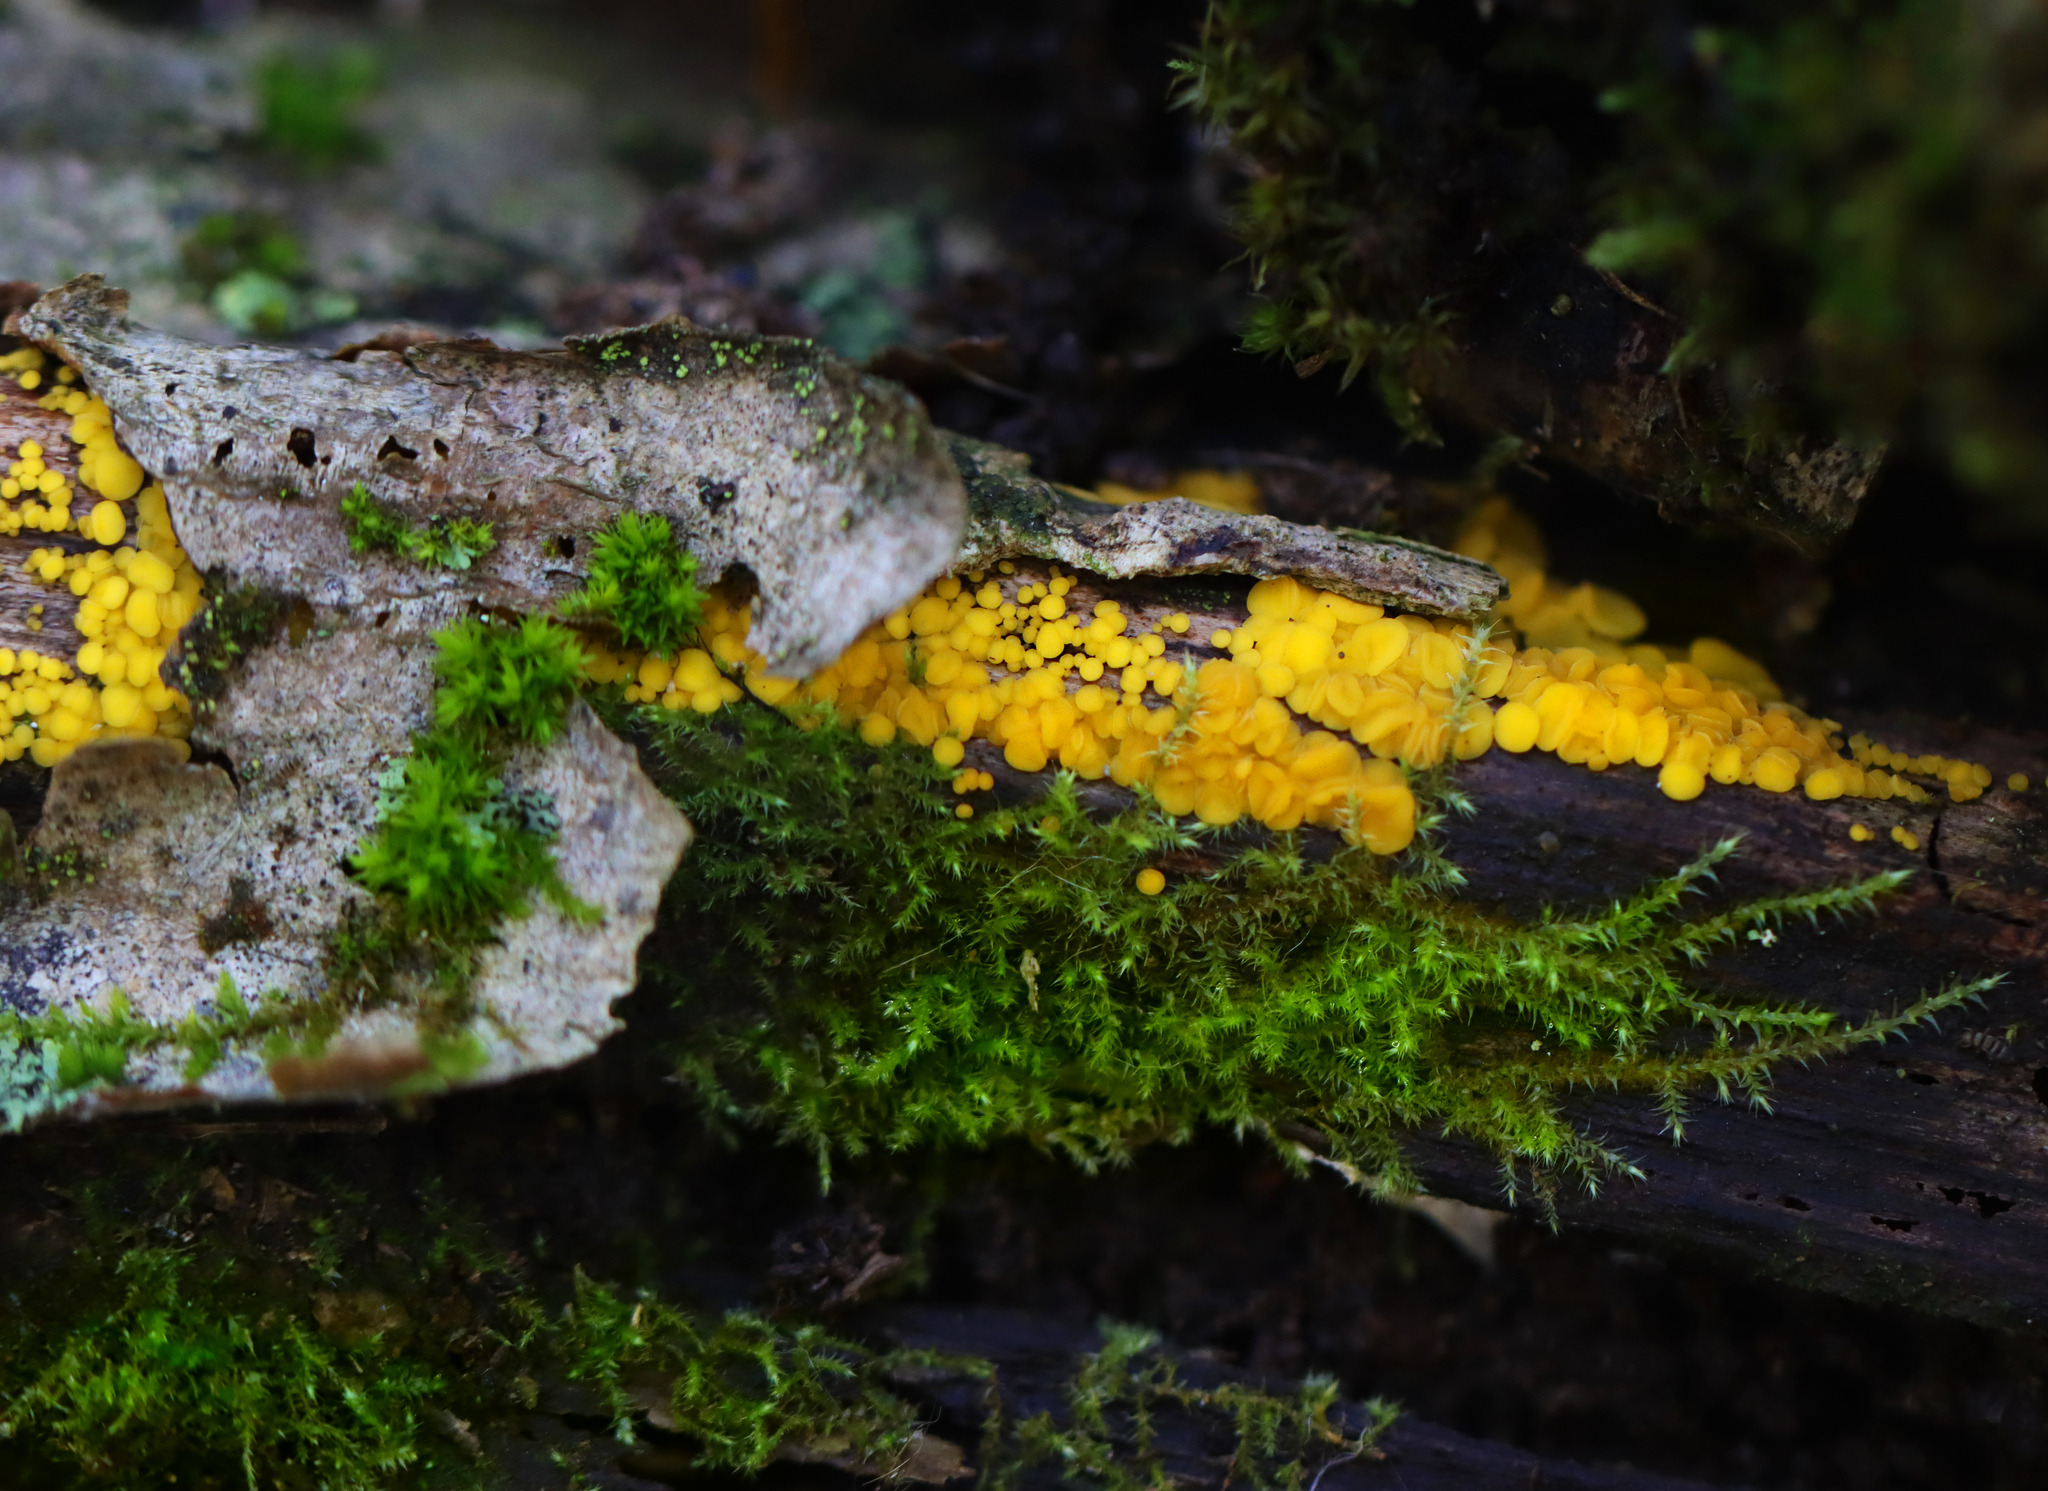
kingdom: Fungi
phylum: Ascomycota
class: Leotiomycetes
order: Helotiales
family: Pezizellaceae
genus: Calycina
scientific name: Calycina citrina
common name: Yellow fairy cups
